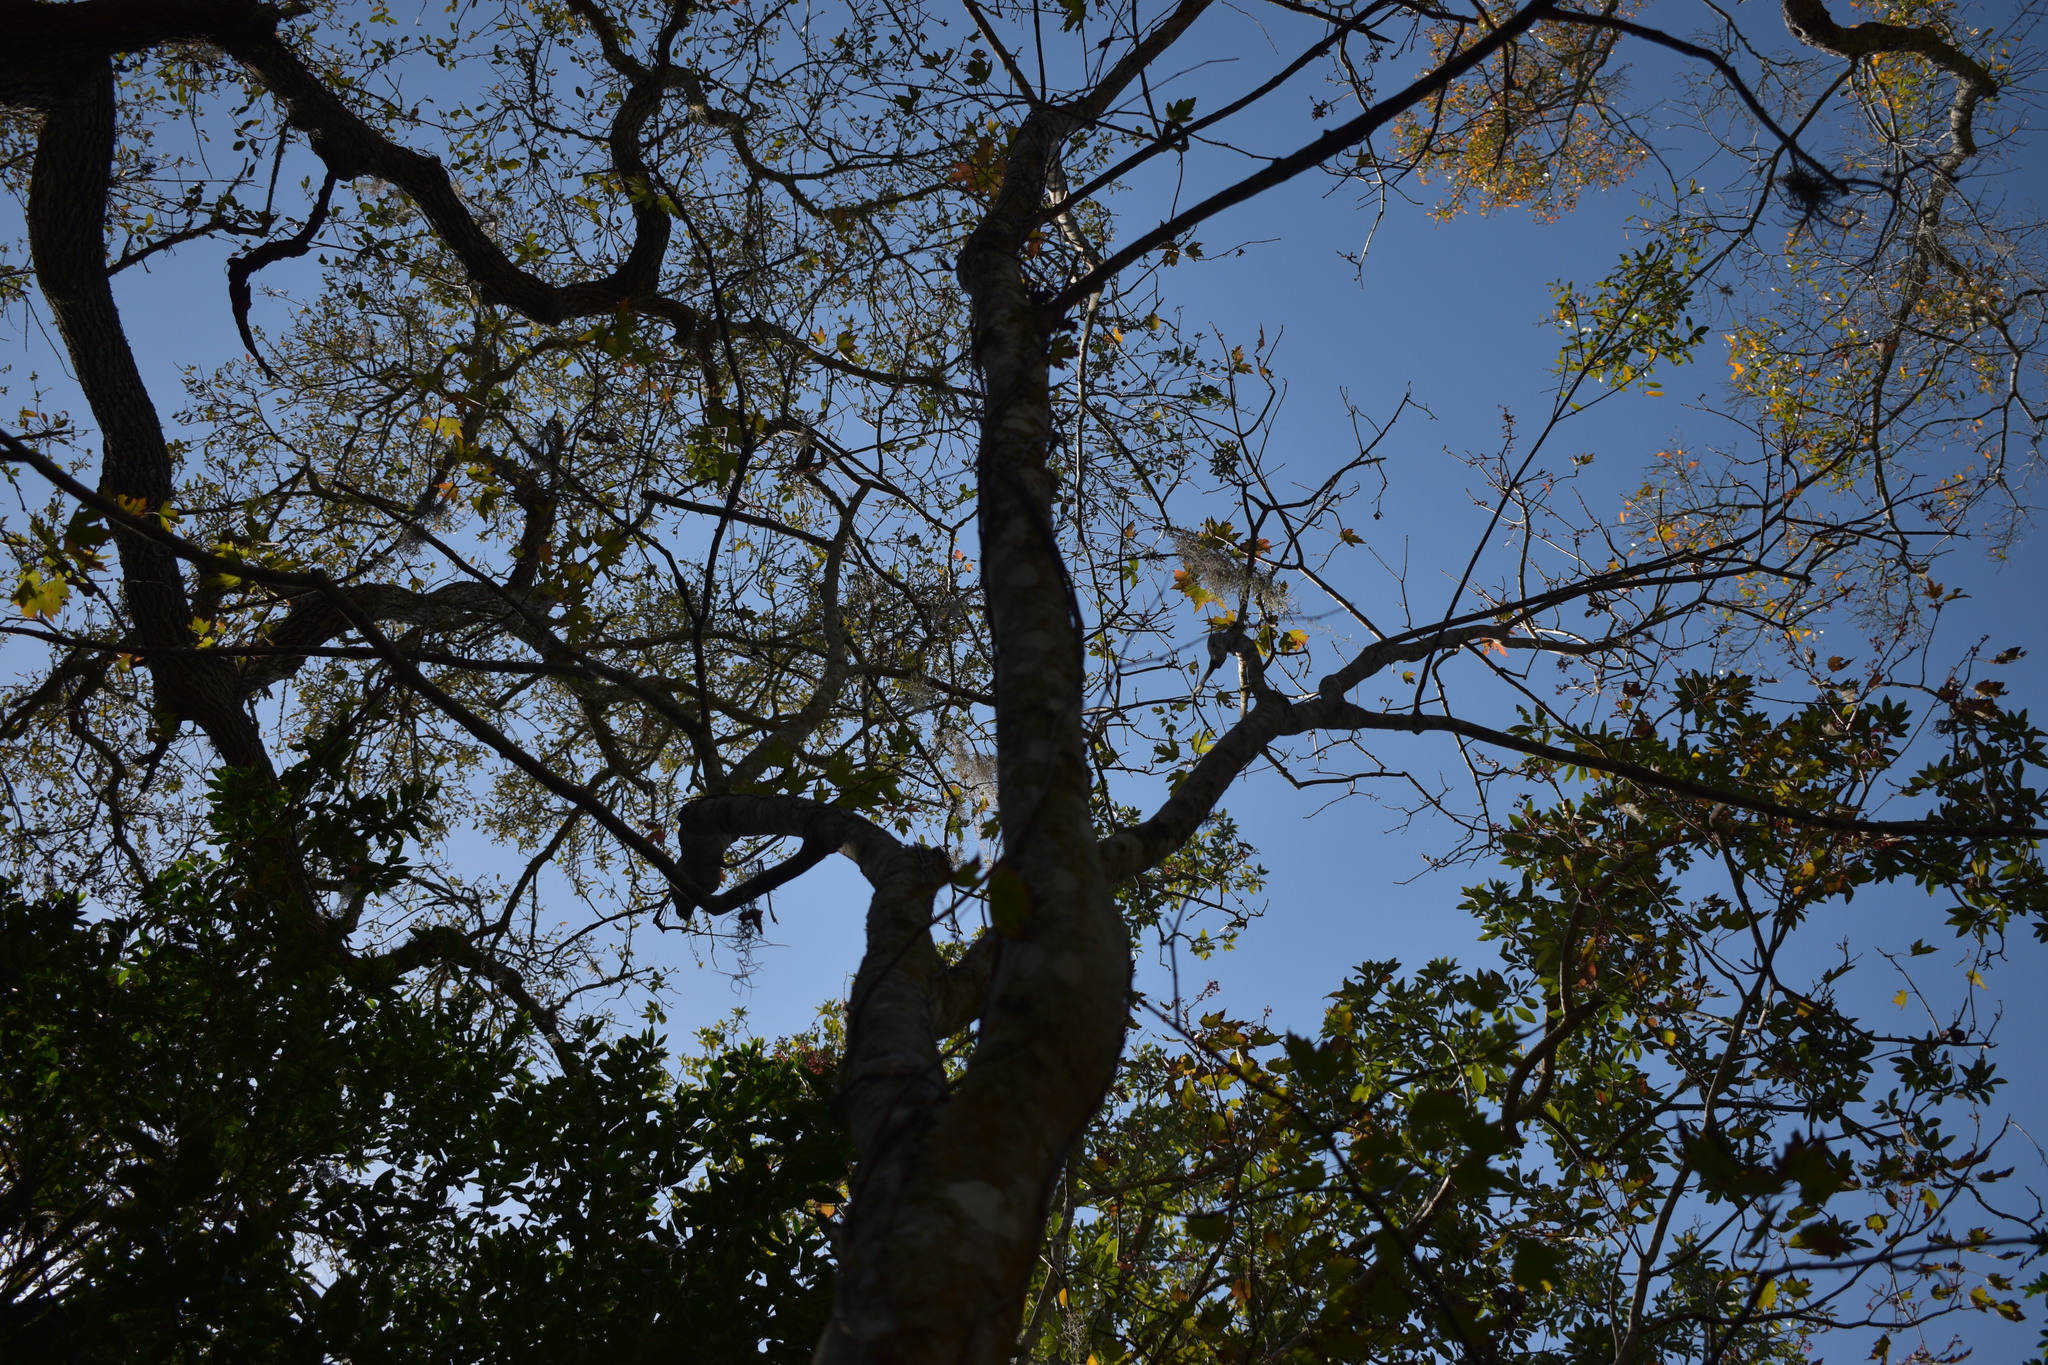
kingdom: Plantae
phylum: Tracheophyta
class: Magnoliopsida
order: Sapindales
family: Sapindaceae
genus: Acer
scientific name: Acer rubrum
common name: Red maple
